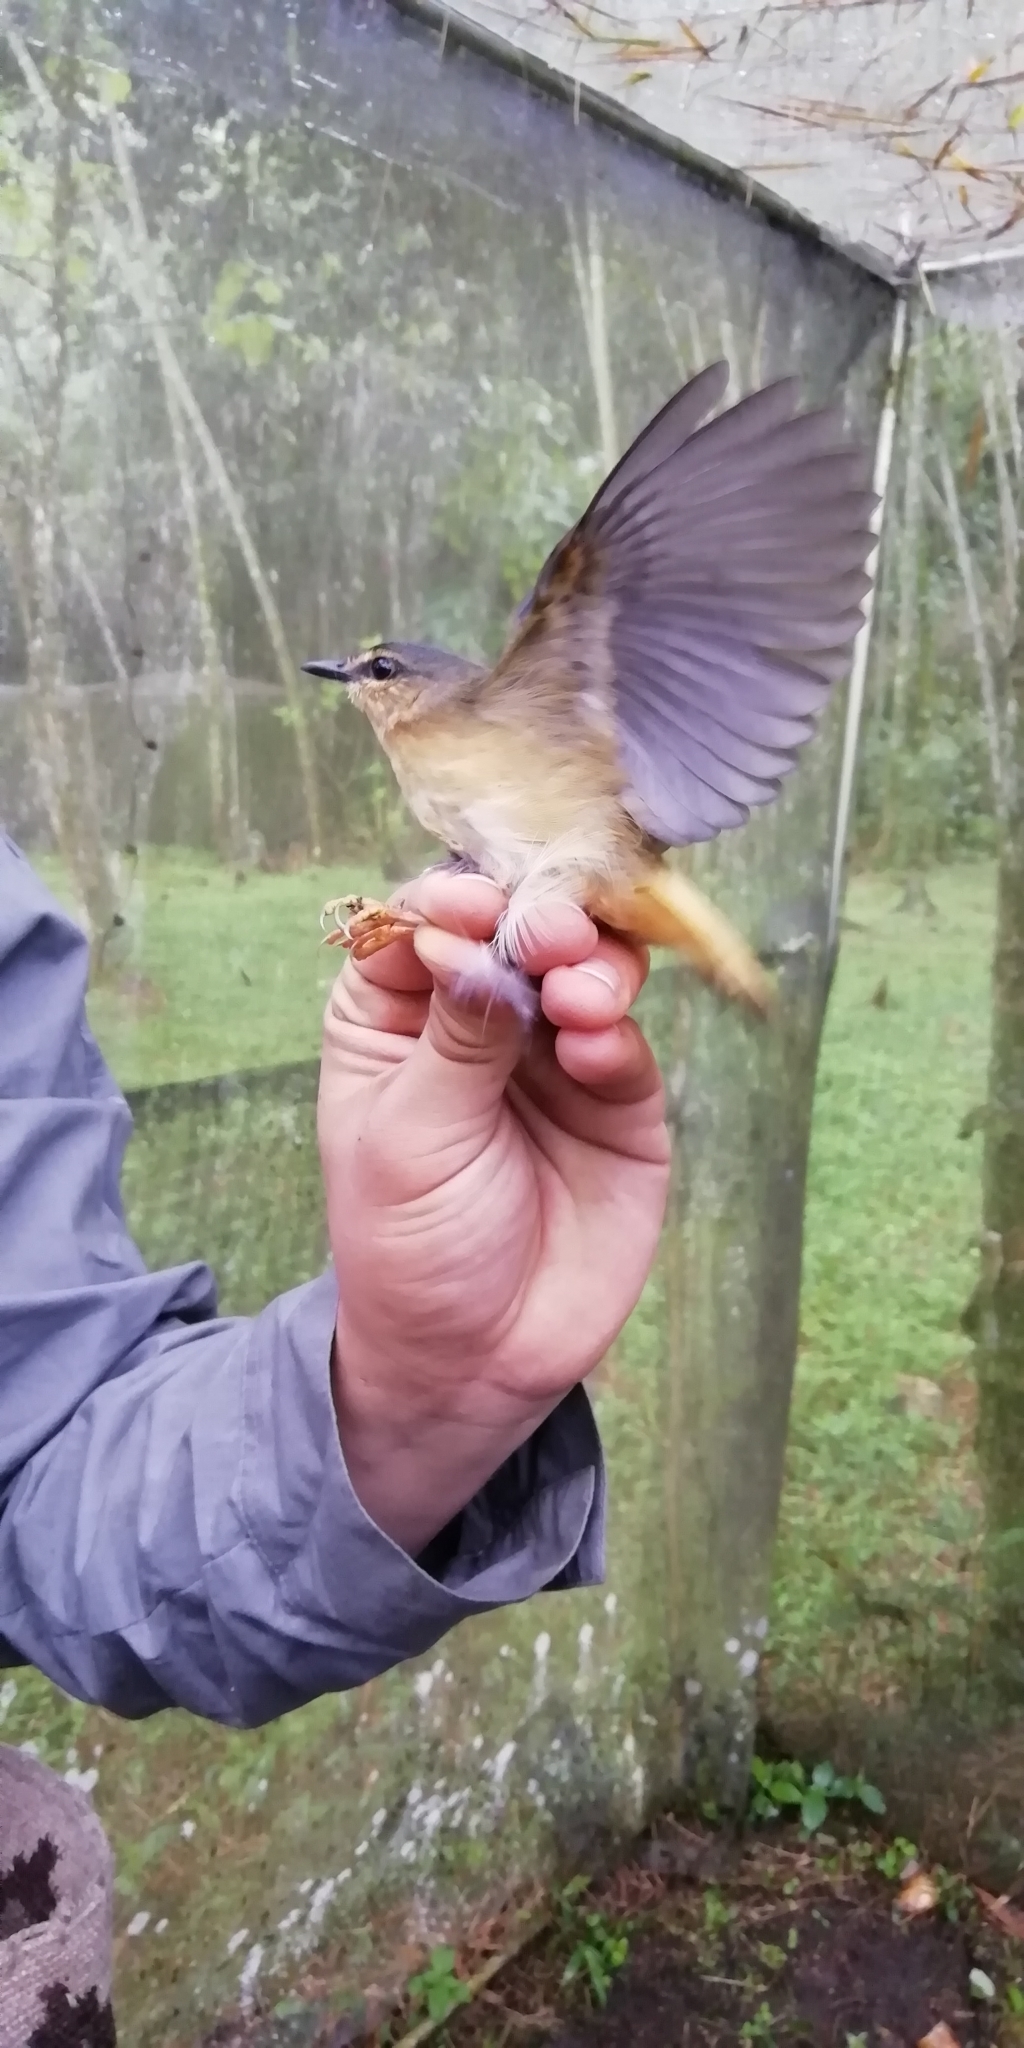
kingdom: Animalia
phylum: Chordata
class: Aves
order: Passeriformes
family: Parulidae
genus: Myiothlypis
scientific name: Myiothlypis fulvicauda
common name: Buff-rumped warbler
